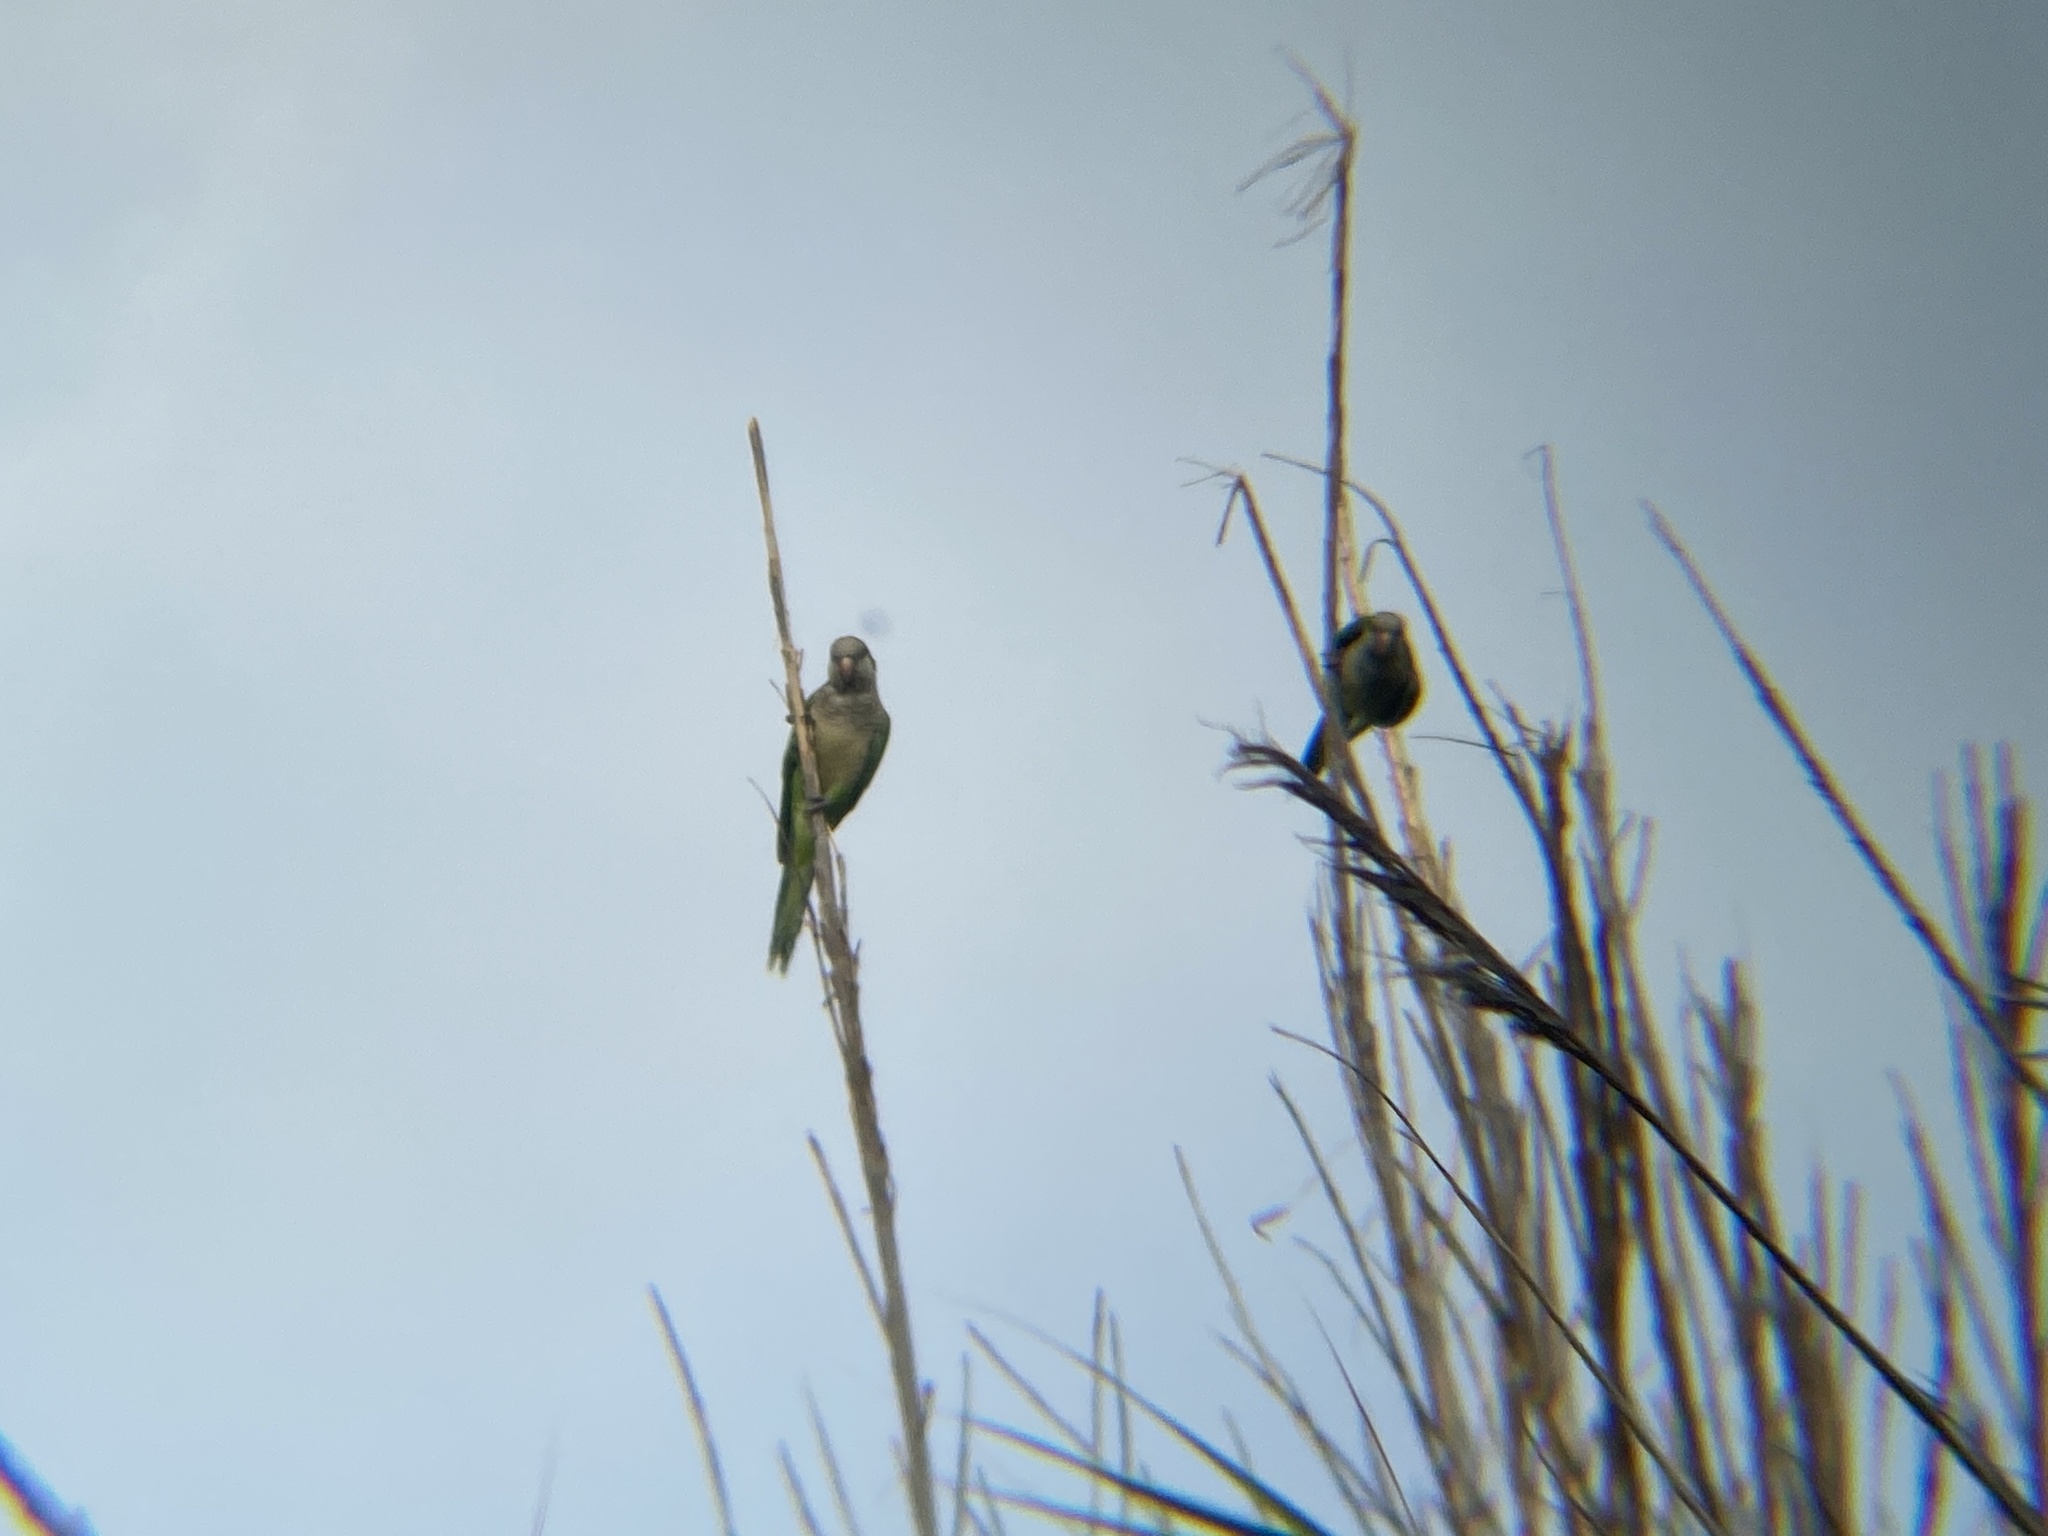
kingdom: Animalia
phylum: Chordata
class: Aves
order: Psittaciformes
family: Psittacidae
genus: Myiopsitta
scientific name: Myiopsitta monachus
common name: Monk parakeet
